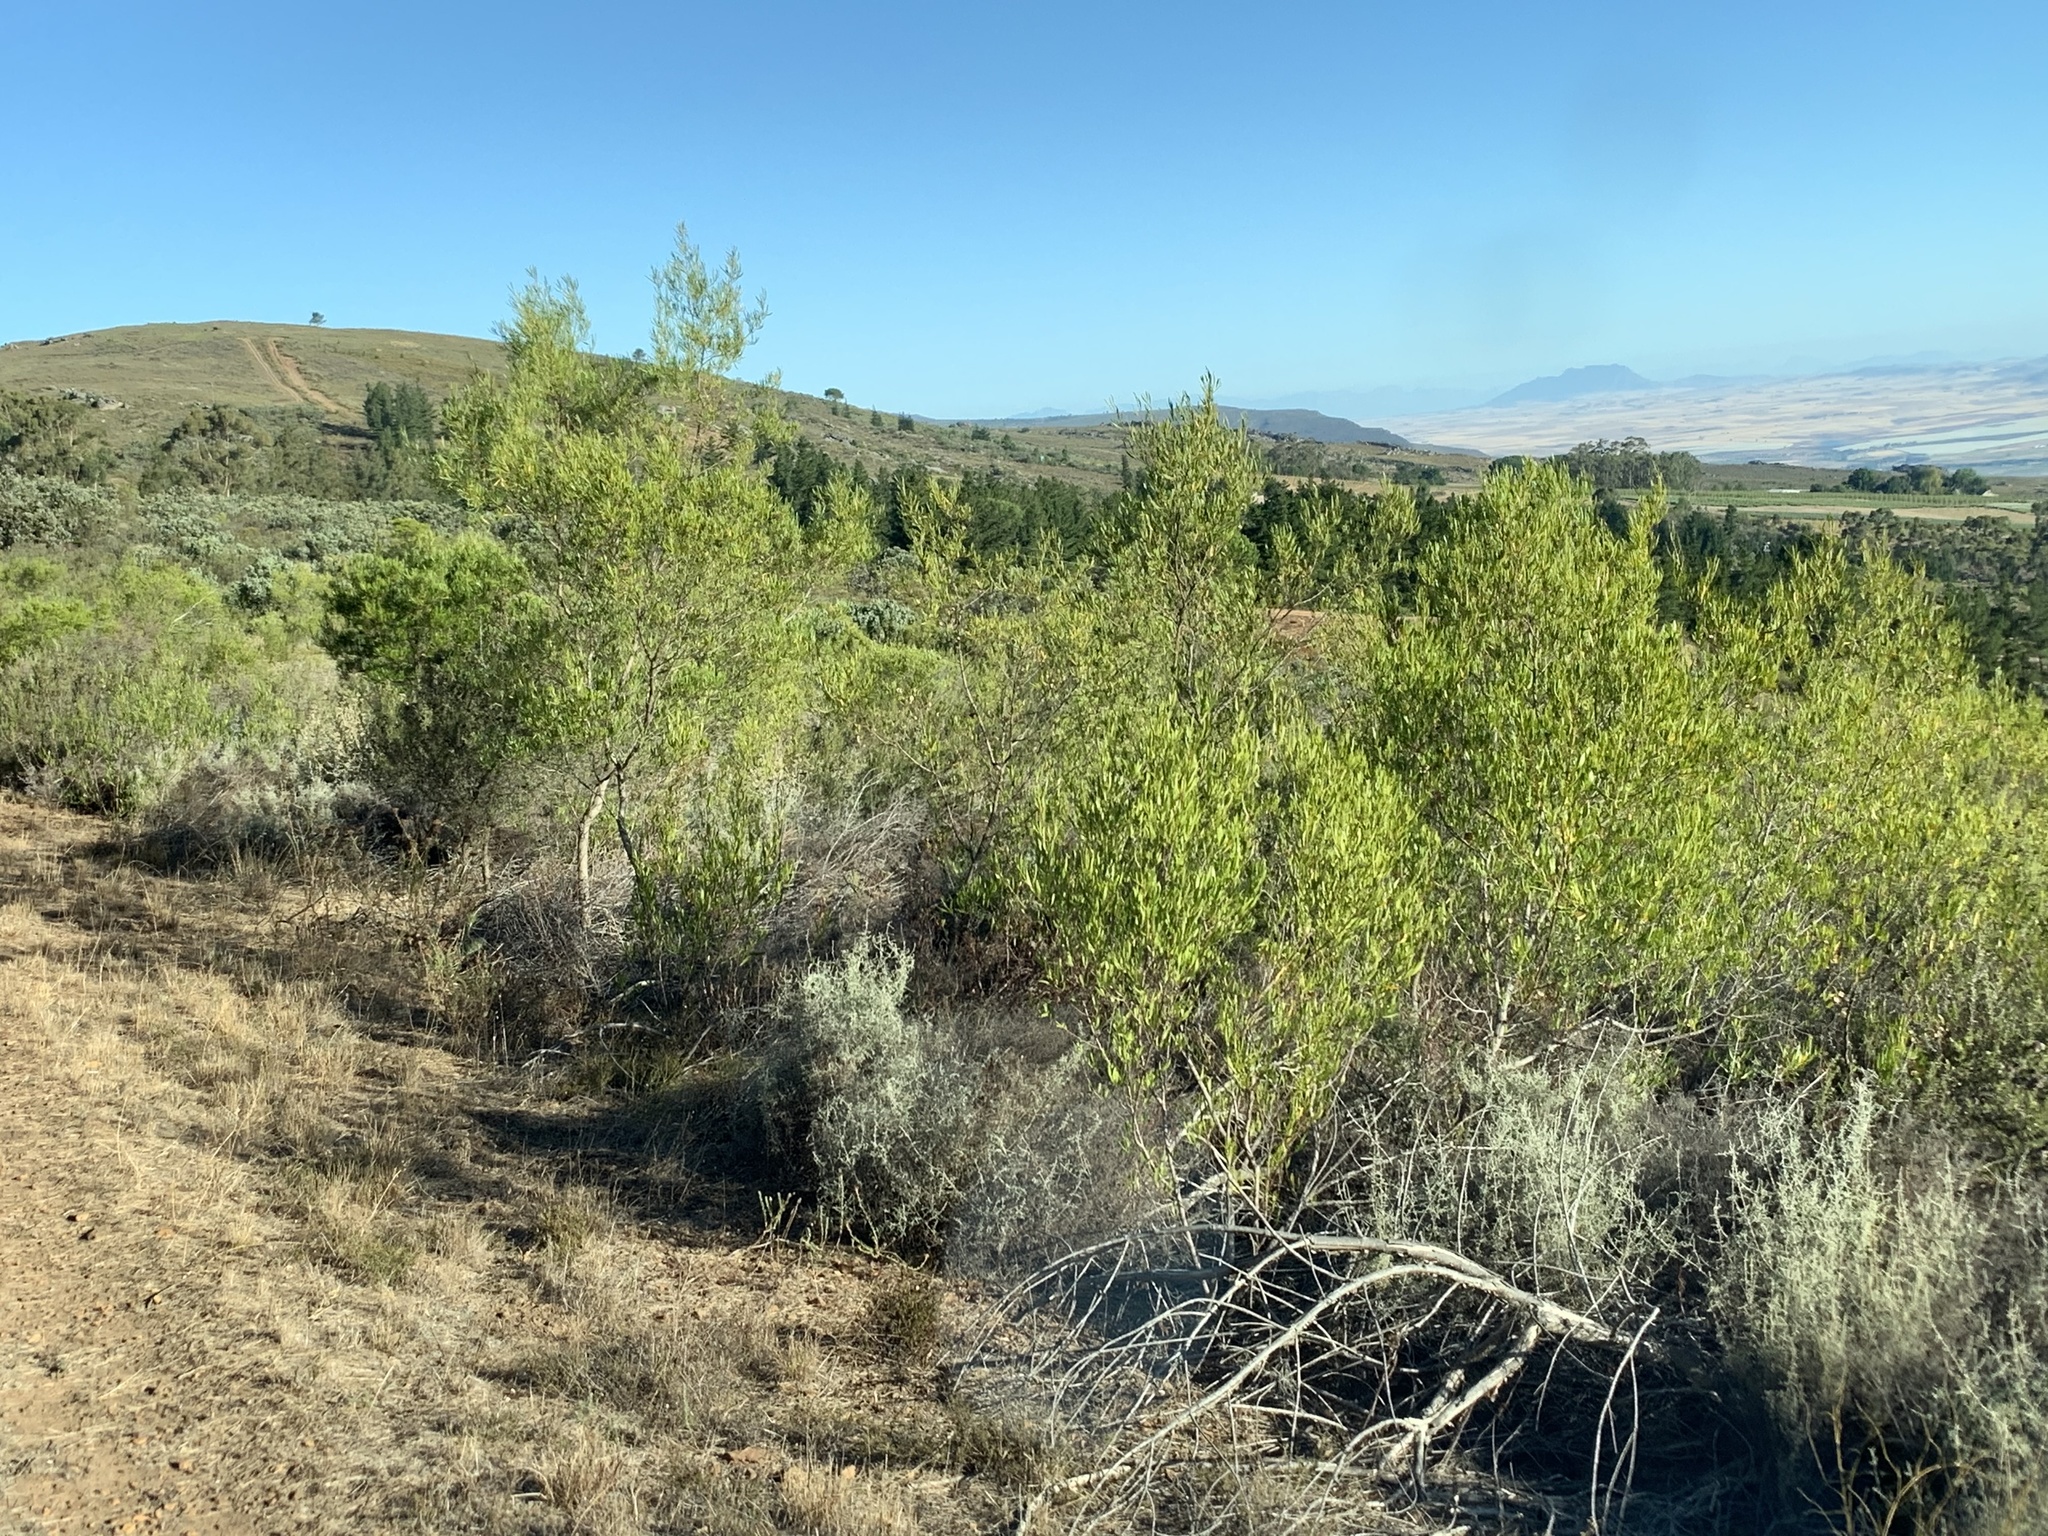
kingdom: Plantae
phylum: Tracheophyta
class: Magnoliopsida
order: Sapindales
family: Sapindaceae
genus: Dodonaea
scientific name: Dodonaea viscosa
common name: Hopbush
